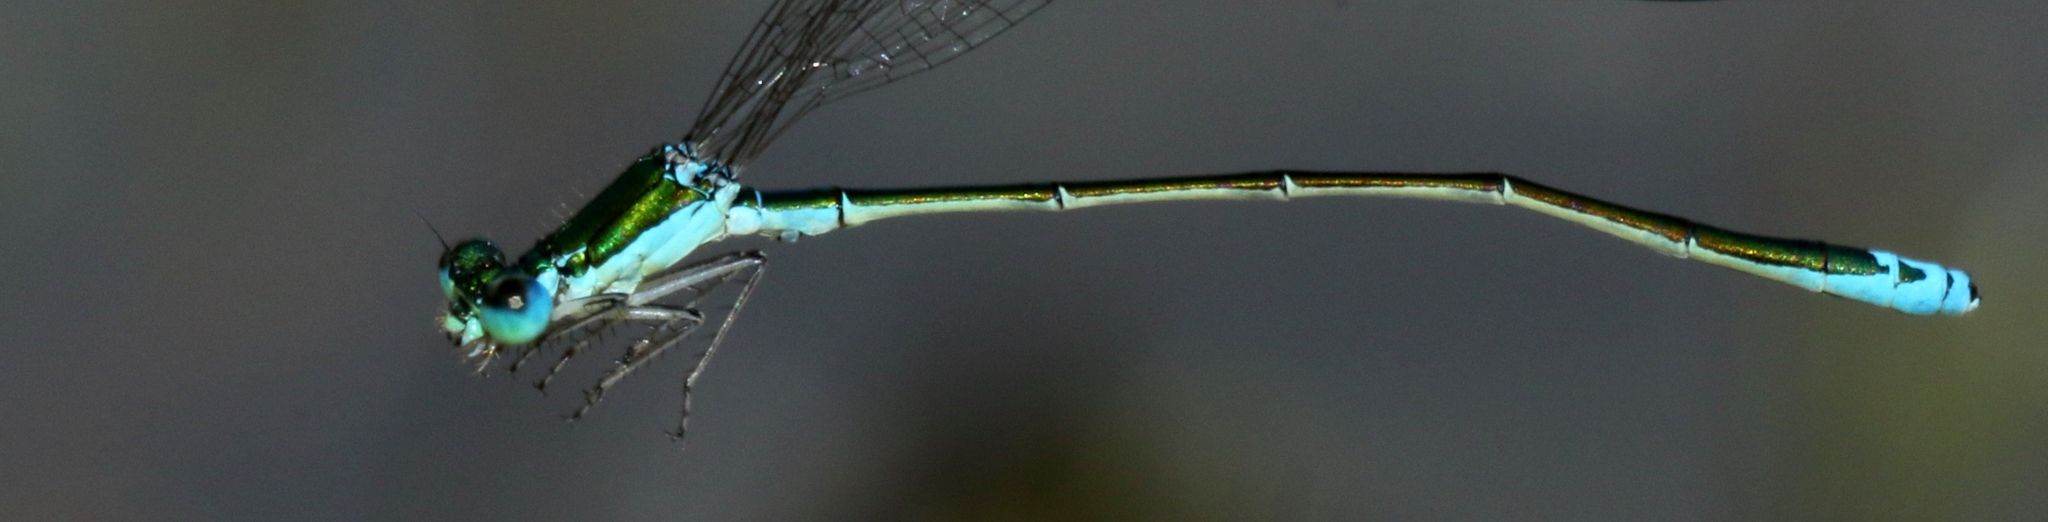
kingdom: Animalia
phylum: Arthropoda
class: Insecta
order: Odonata
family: Coenagrionidae
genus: Nehalennia
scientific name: Nehalennia irene
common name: Sedge sprite
